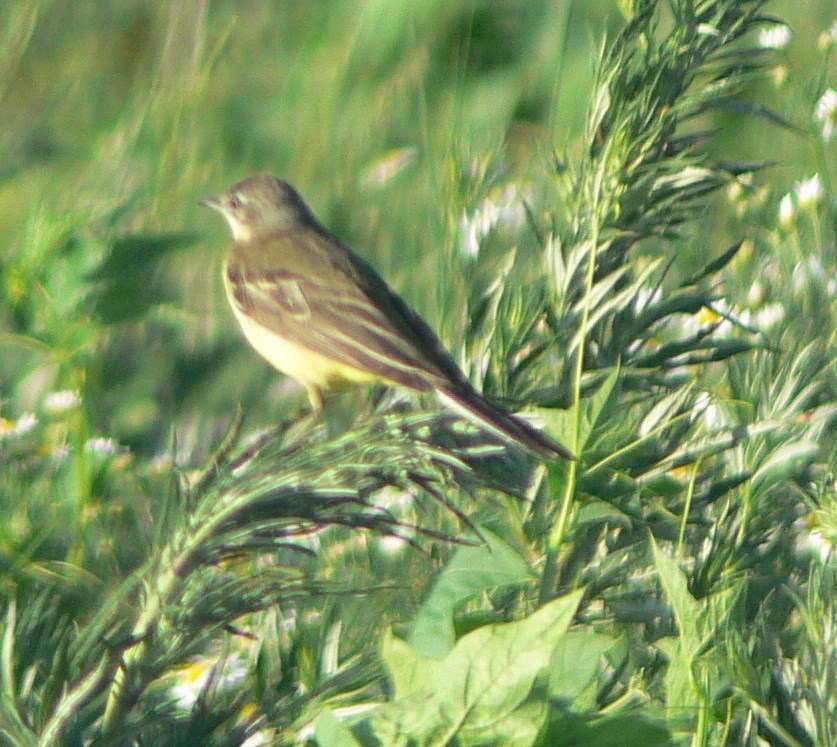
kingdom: Animalia
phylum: Chordata
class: Aves
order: Passeriformes
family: Motacillidae
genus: Motacilla
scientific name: Motacilla flava
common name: Western yellow wagtail
